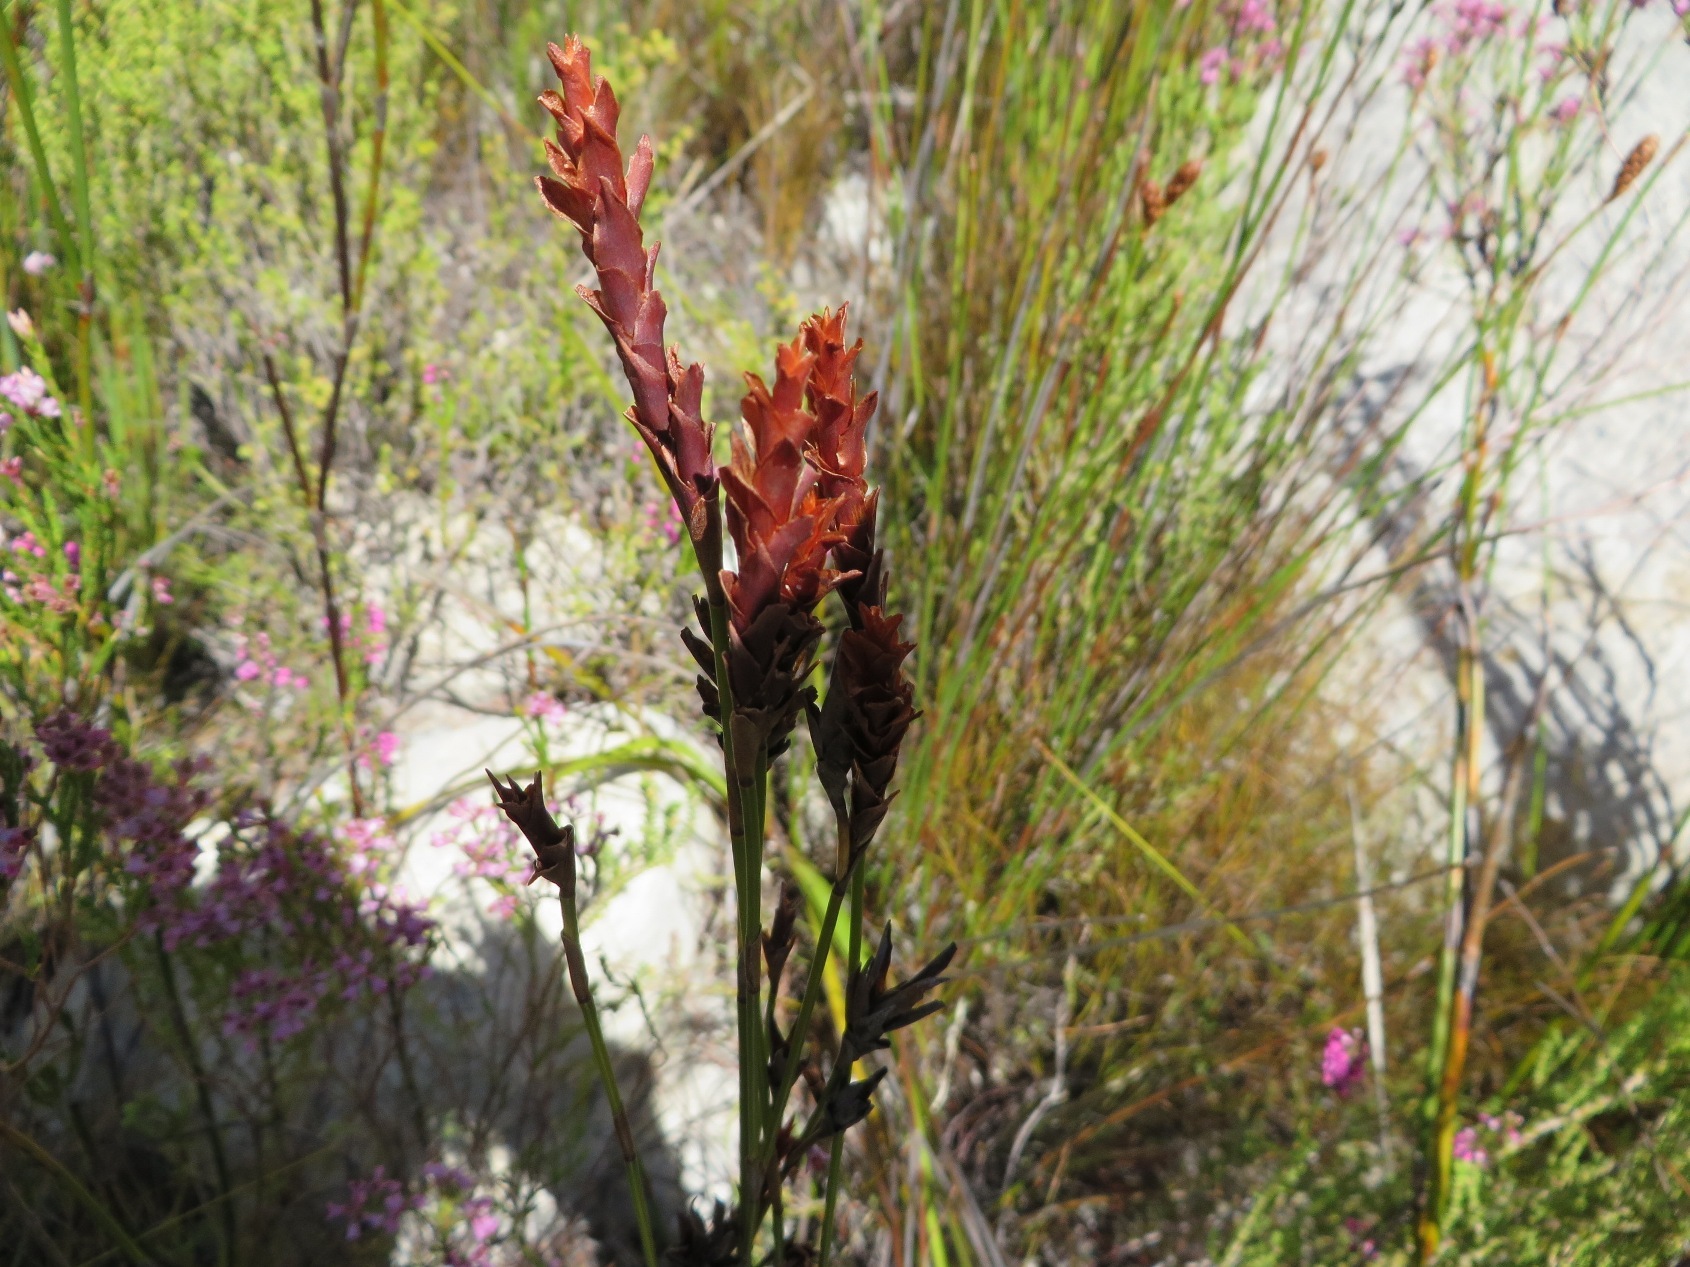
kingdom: Plantae
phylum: Tracheophyta
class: Liliopsida
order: Poales
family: Restionaceae
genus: Restio
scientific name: Restio bifarius
